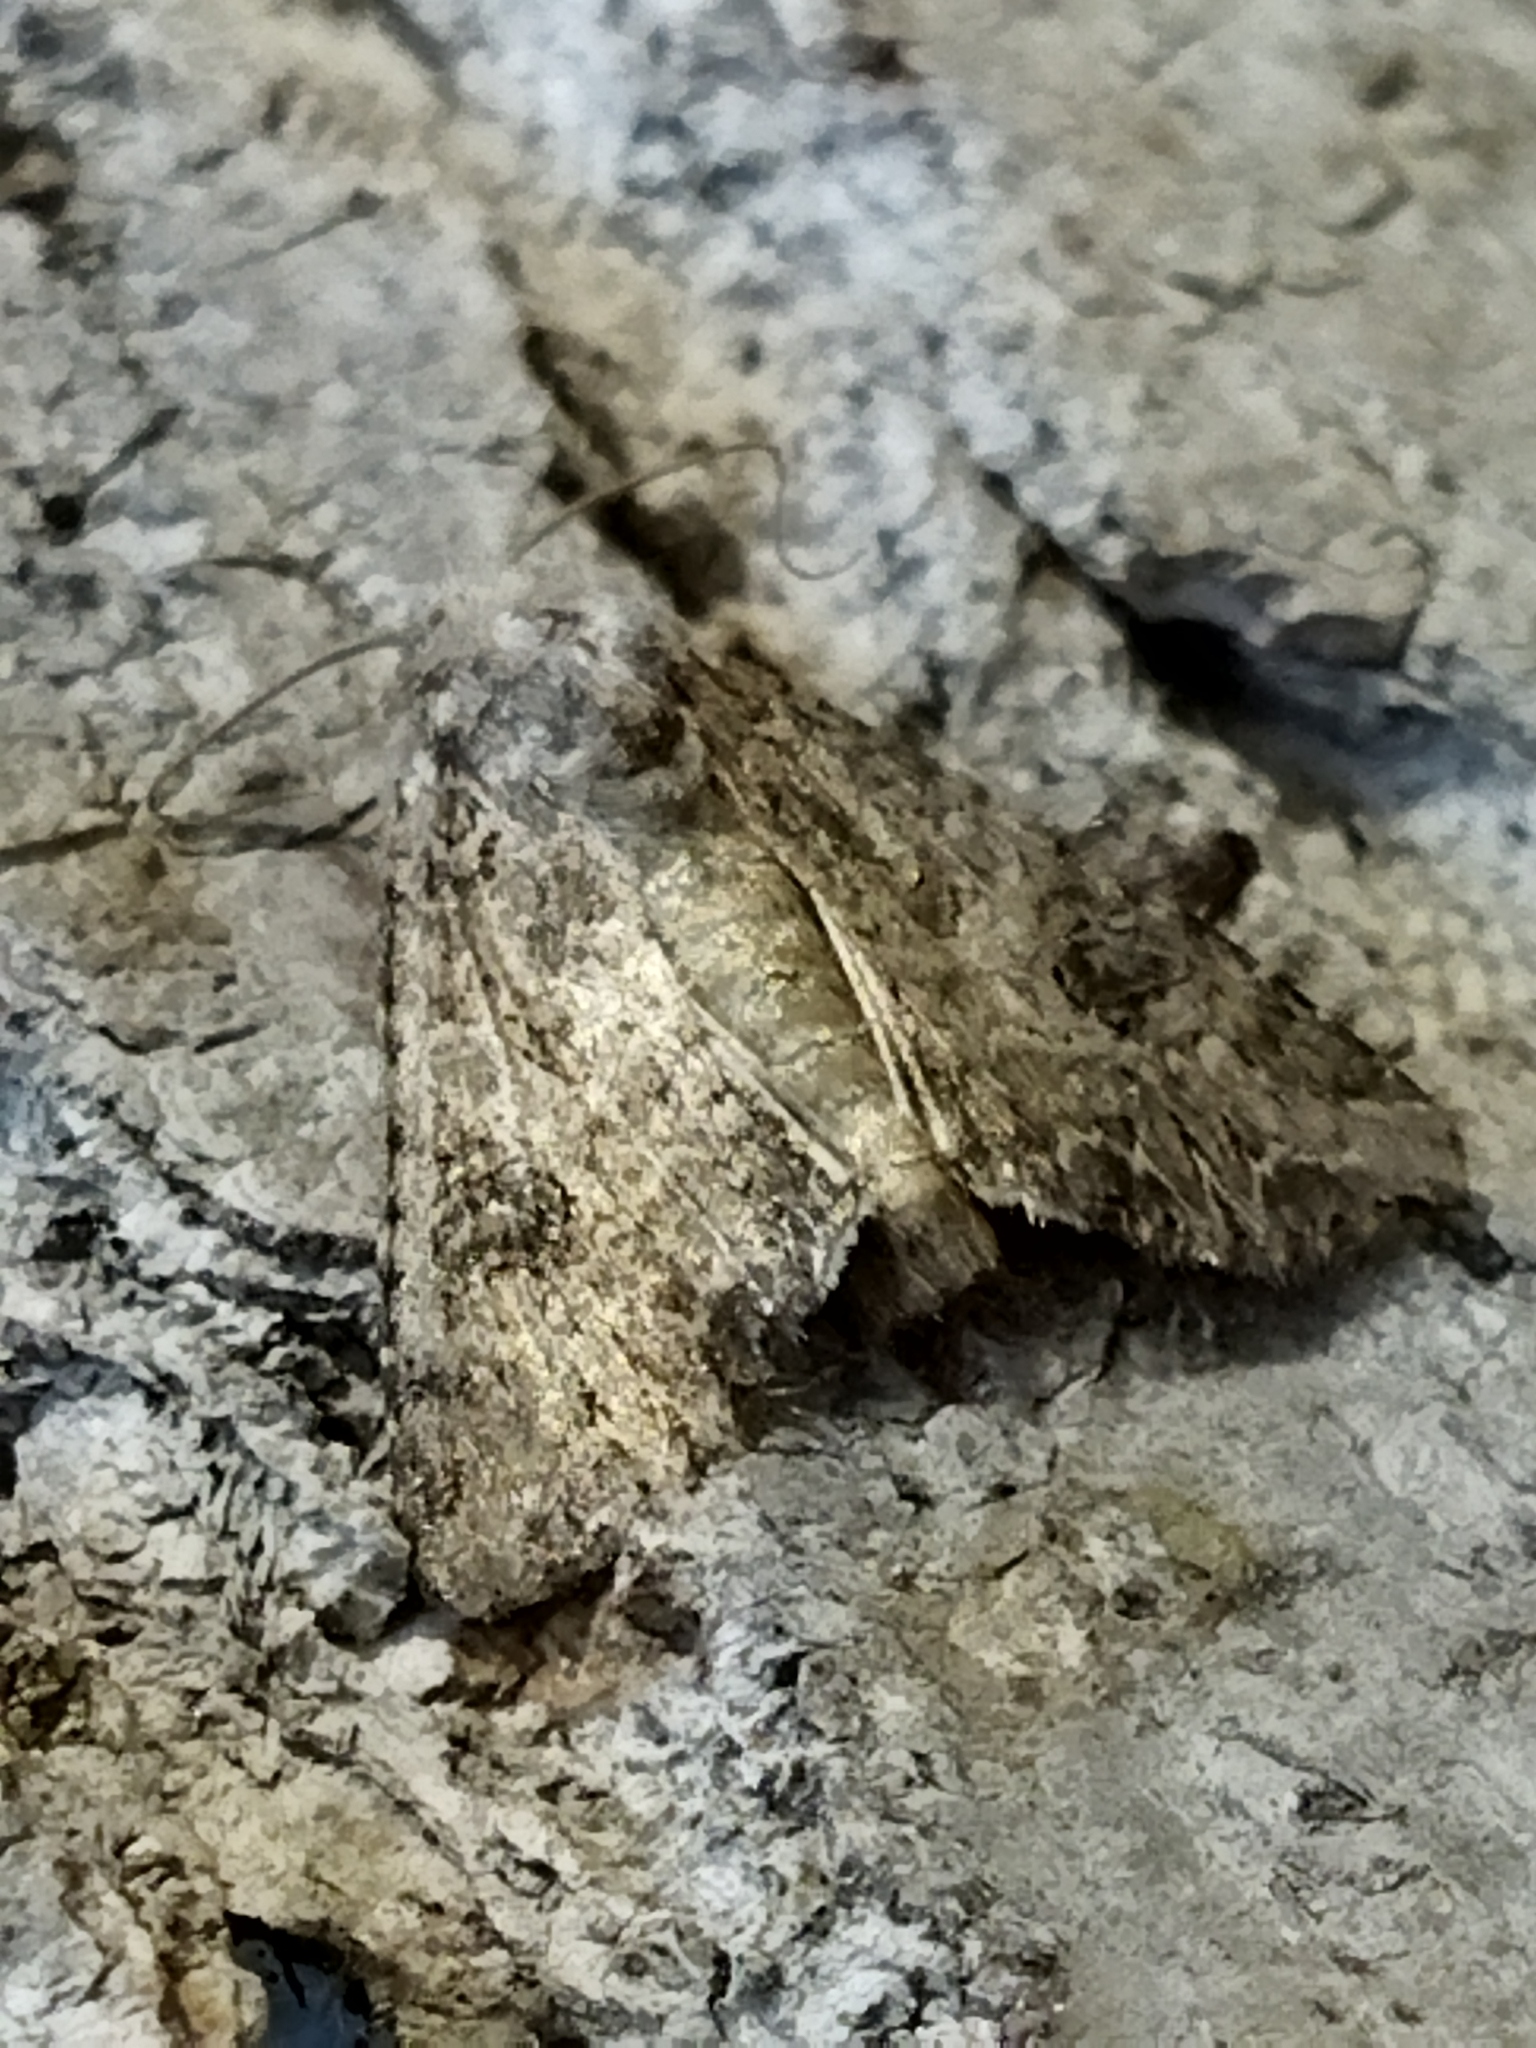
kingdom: Animalia
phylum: Arthropoda
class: Insecta
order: Lepidoptera
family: Noctuidae
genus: Anarta
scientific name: Anarta trifolii
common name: Clover cutworm moth
